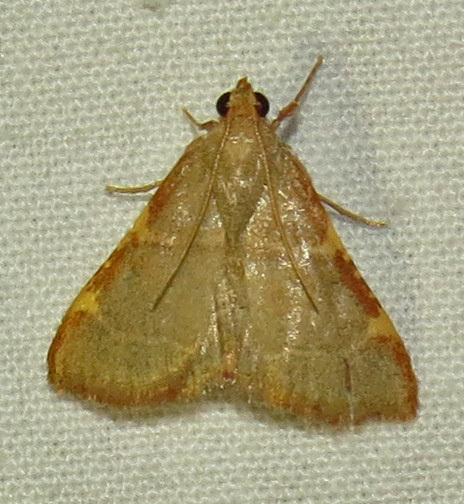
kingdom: Animalia
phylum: Arthropoda
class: Insecta
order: Lepidoptera
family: Pyralidae
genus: Hypsopygia
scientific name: Hypsopygia binodulalis
